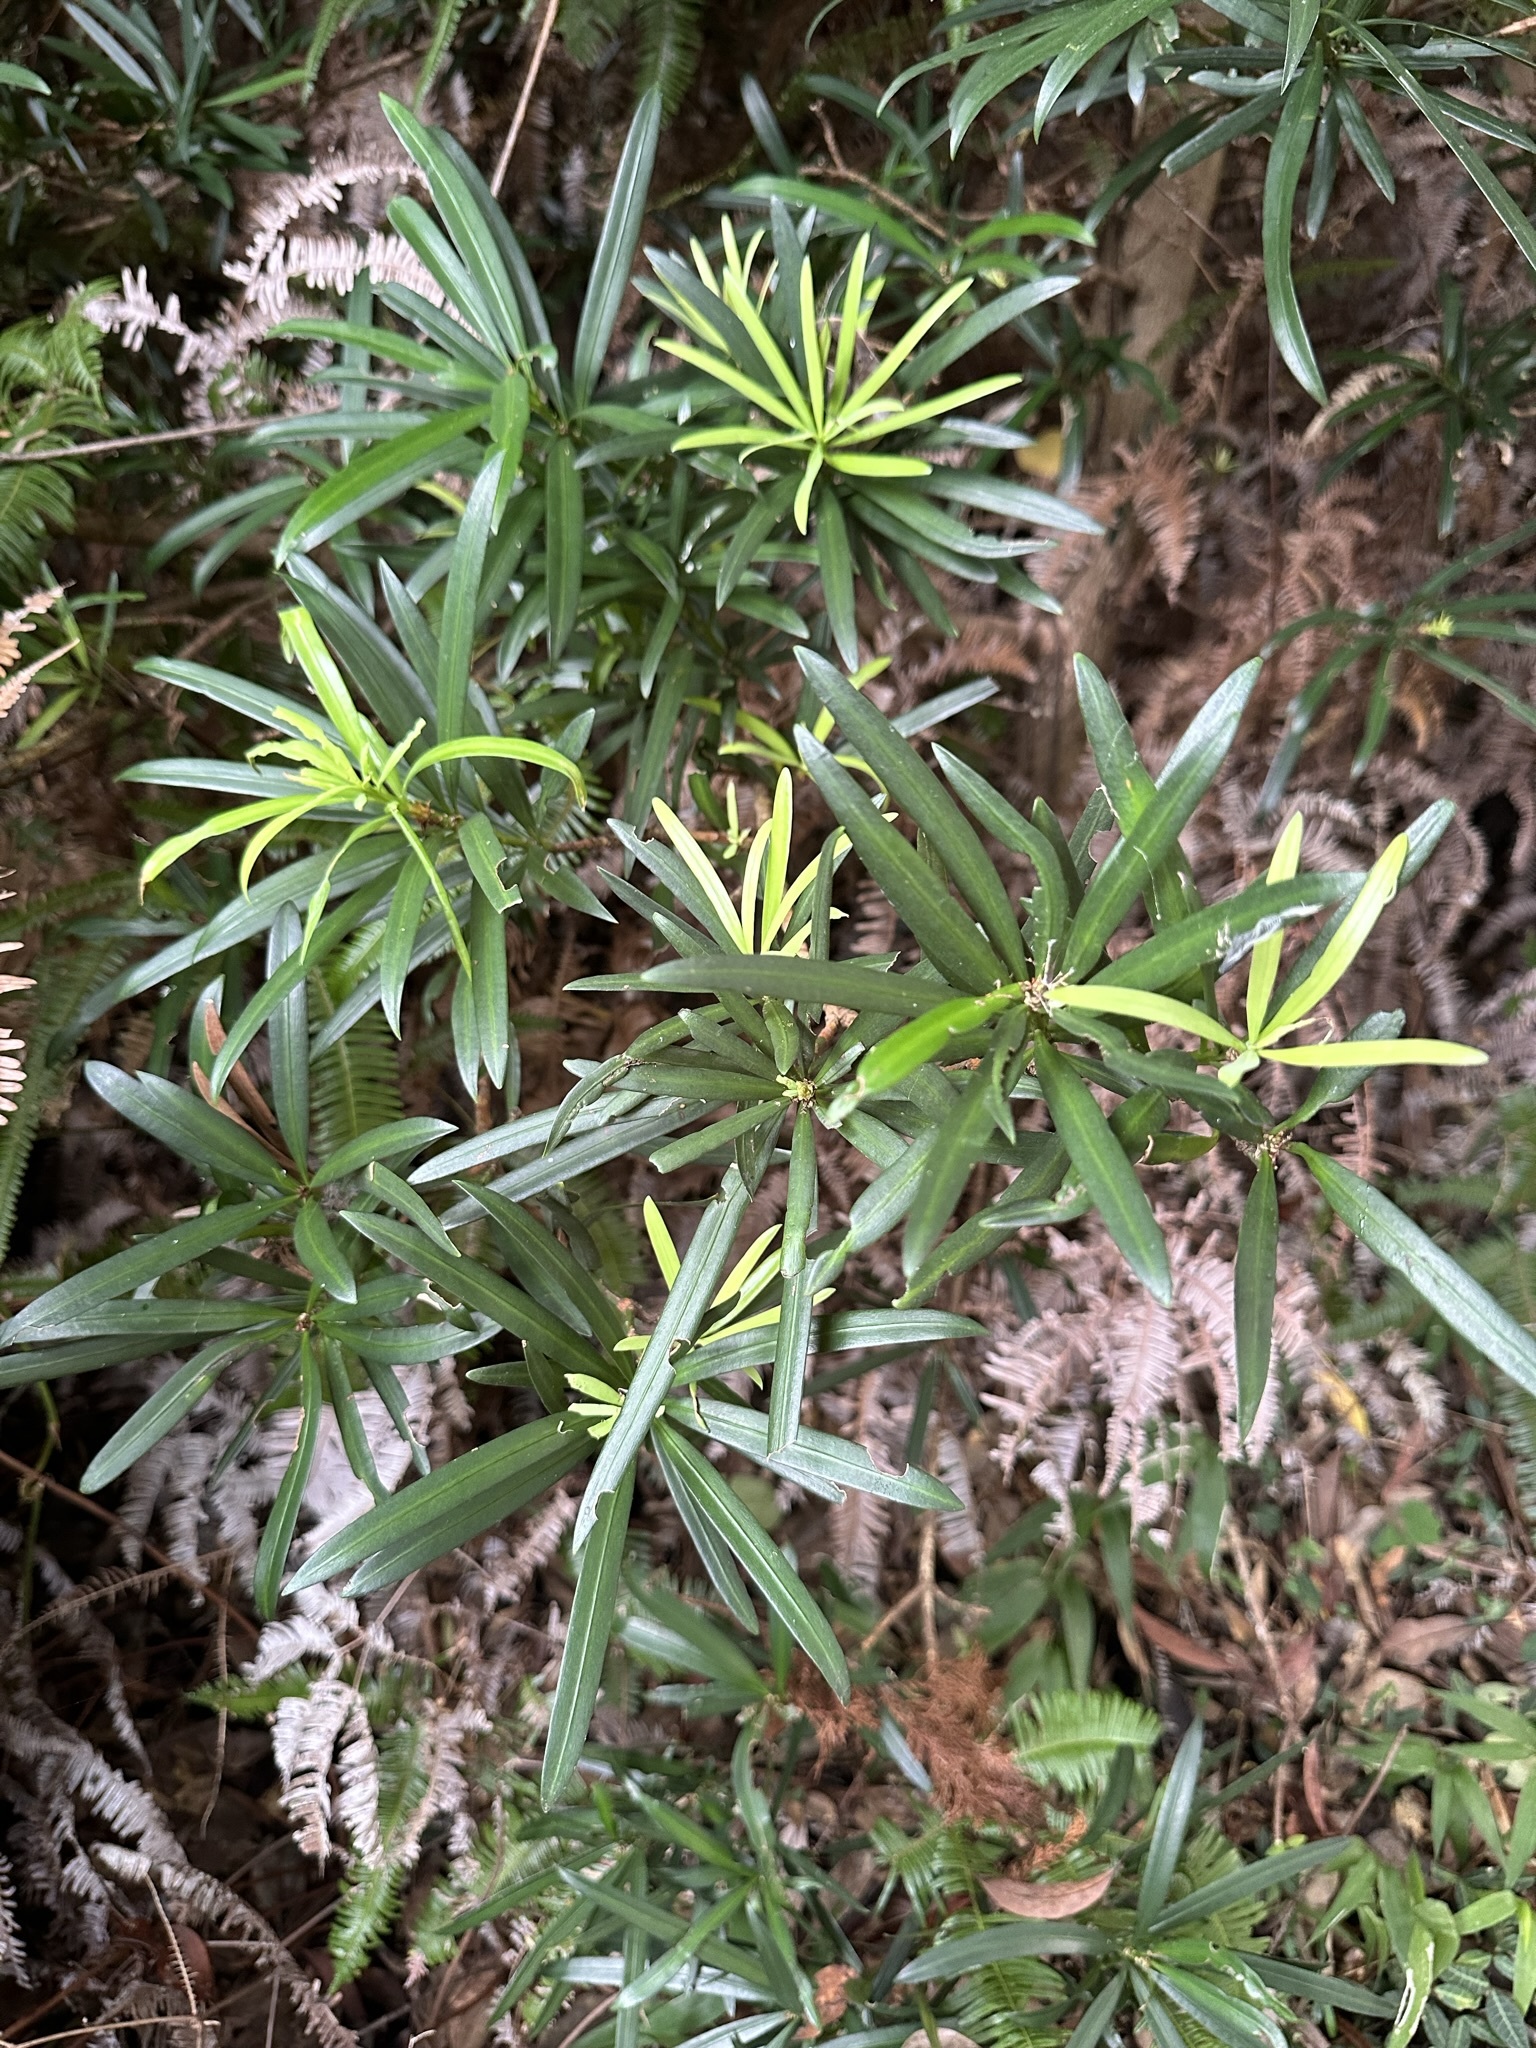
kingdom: Plantae
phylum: Tracheophyta
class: Pinopsida
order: Pinales
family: Podocarpaceae
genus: Podocarpus
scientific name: Podocarpus macrophyllus
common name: Japanese yew
